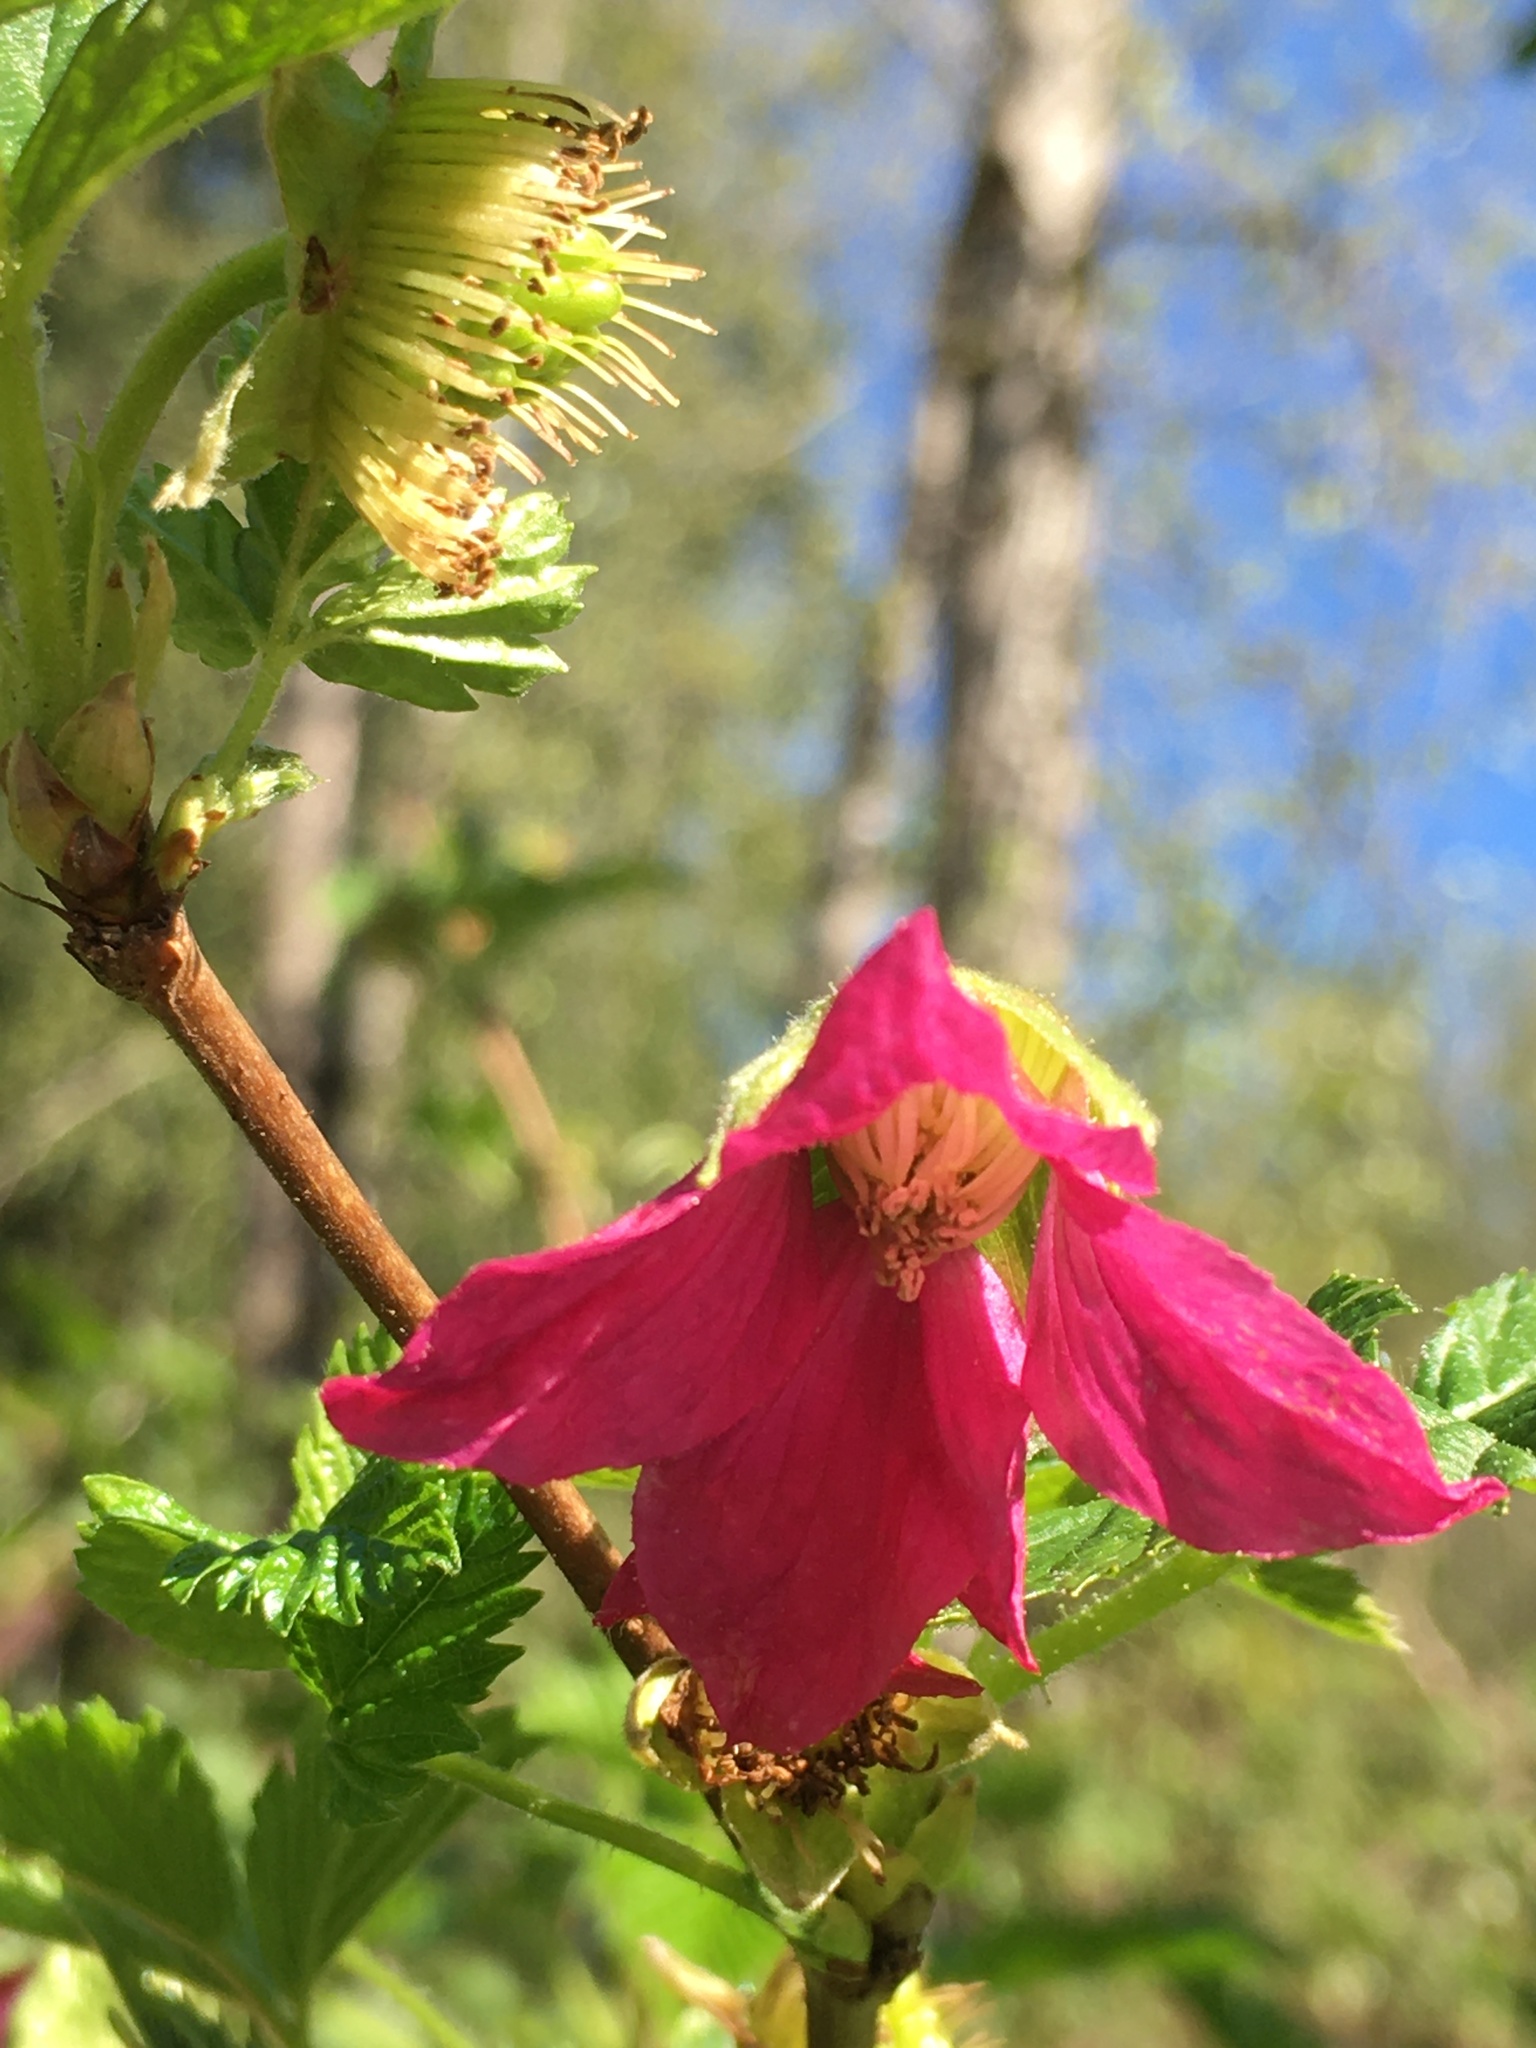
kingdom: Plantae
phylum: Tracheophyta
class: Magnoliopsida
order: Rosales
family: Rosaceae
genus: Rubus
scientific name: Rubus spectabilis
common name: Salmonberry
